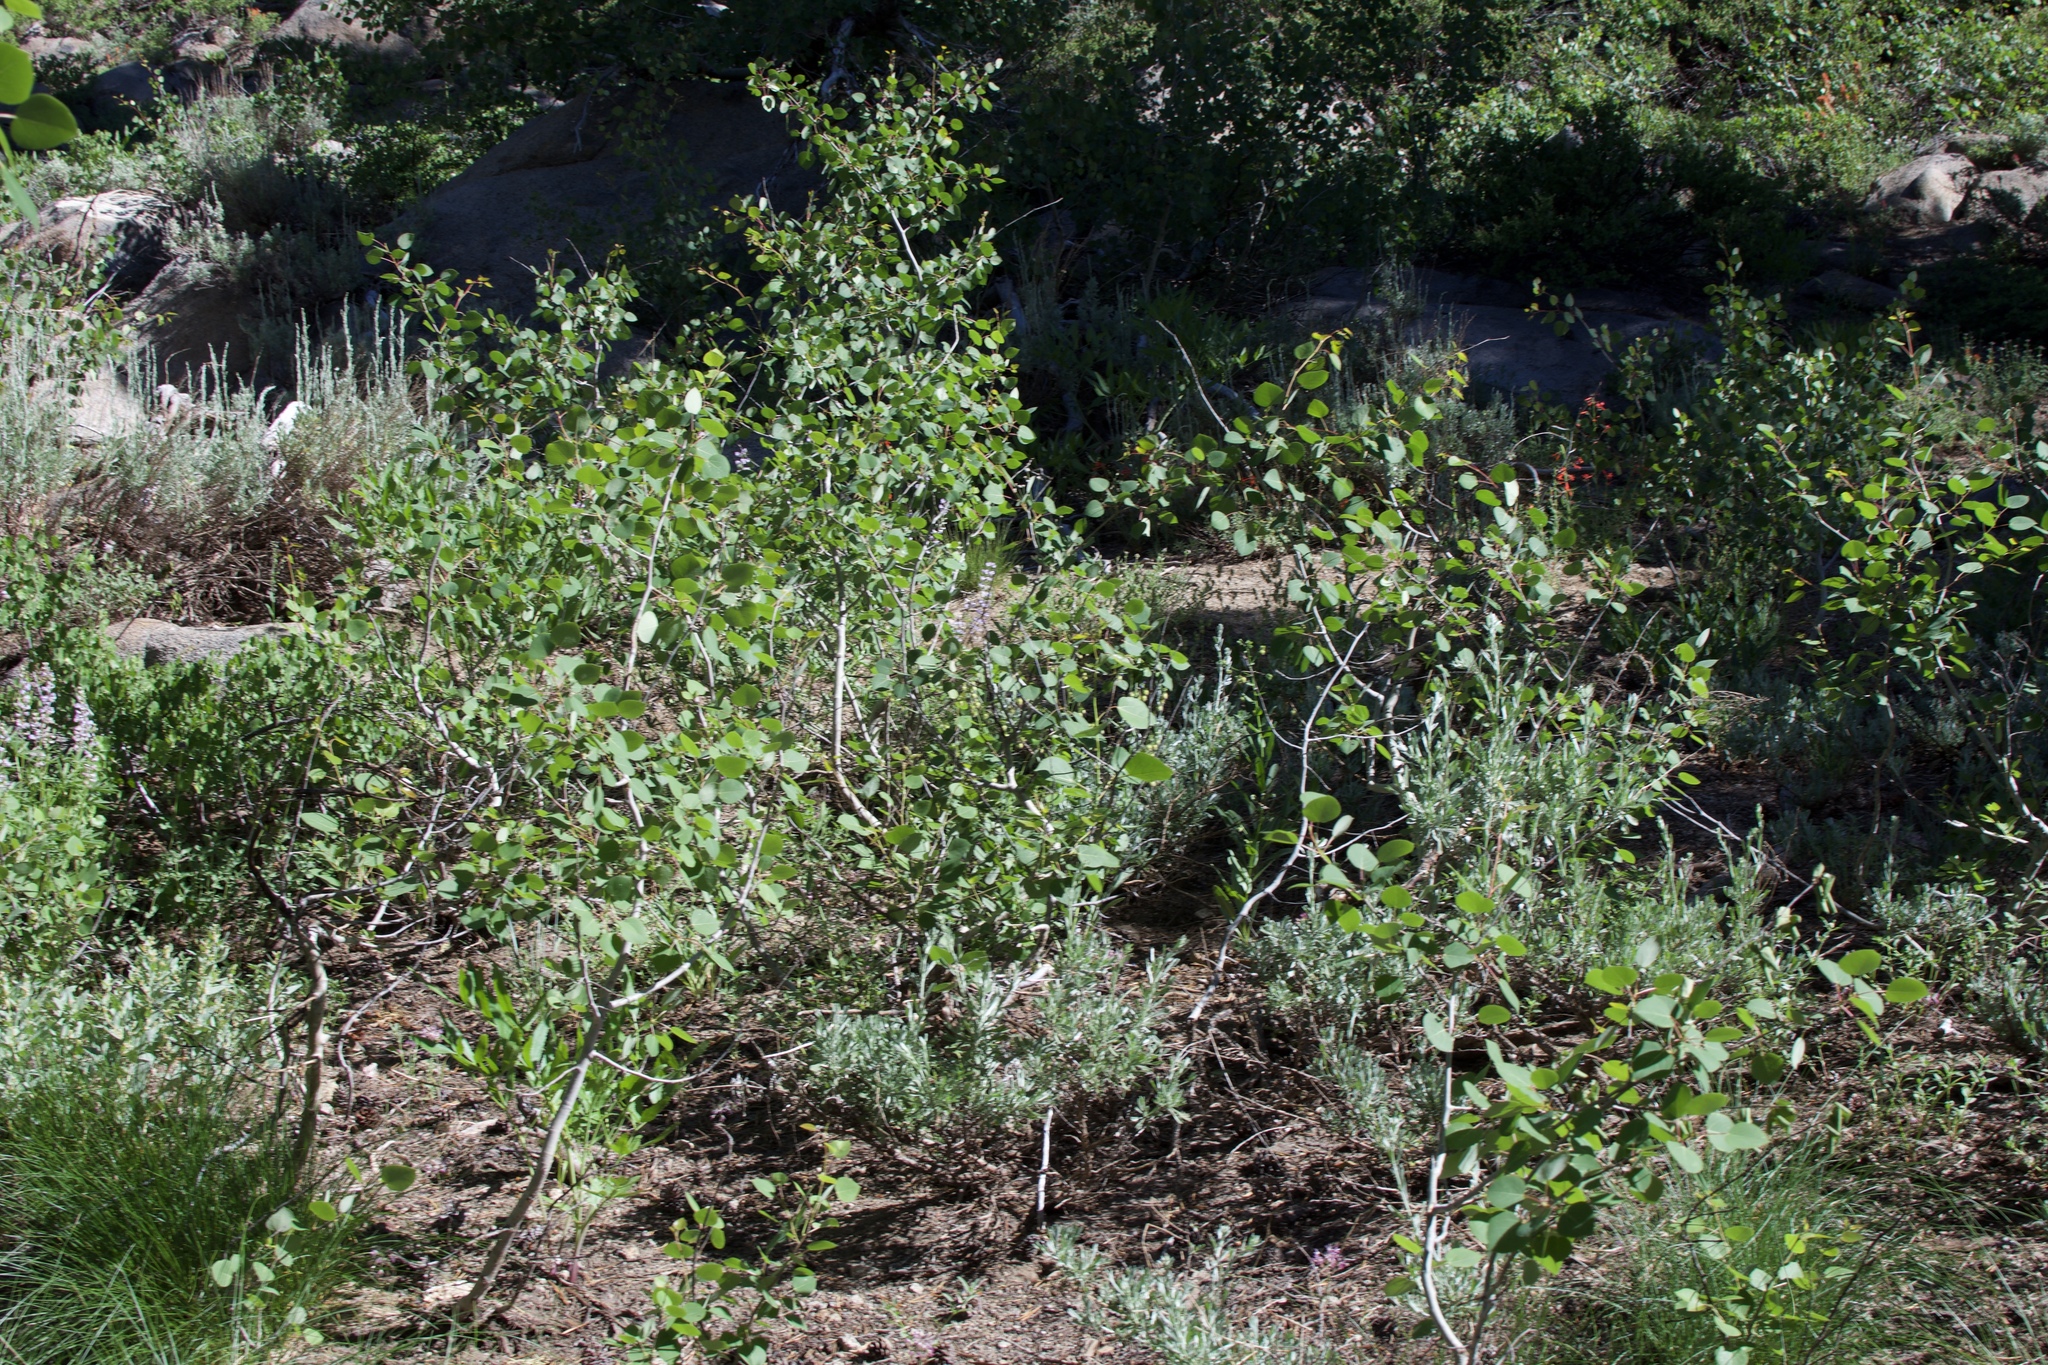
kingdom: Plantae
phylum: Tracheophyta
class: Magnoliopsida
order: Malpighiales
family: Salicaceae
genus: Populus
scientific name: Populus tremuloides
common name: Quaking aspen
